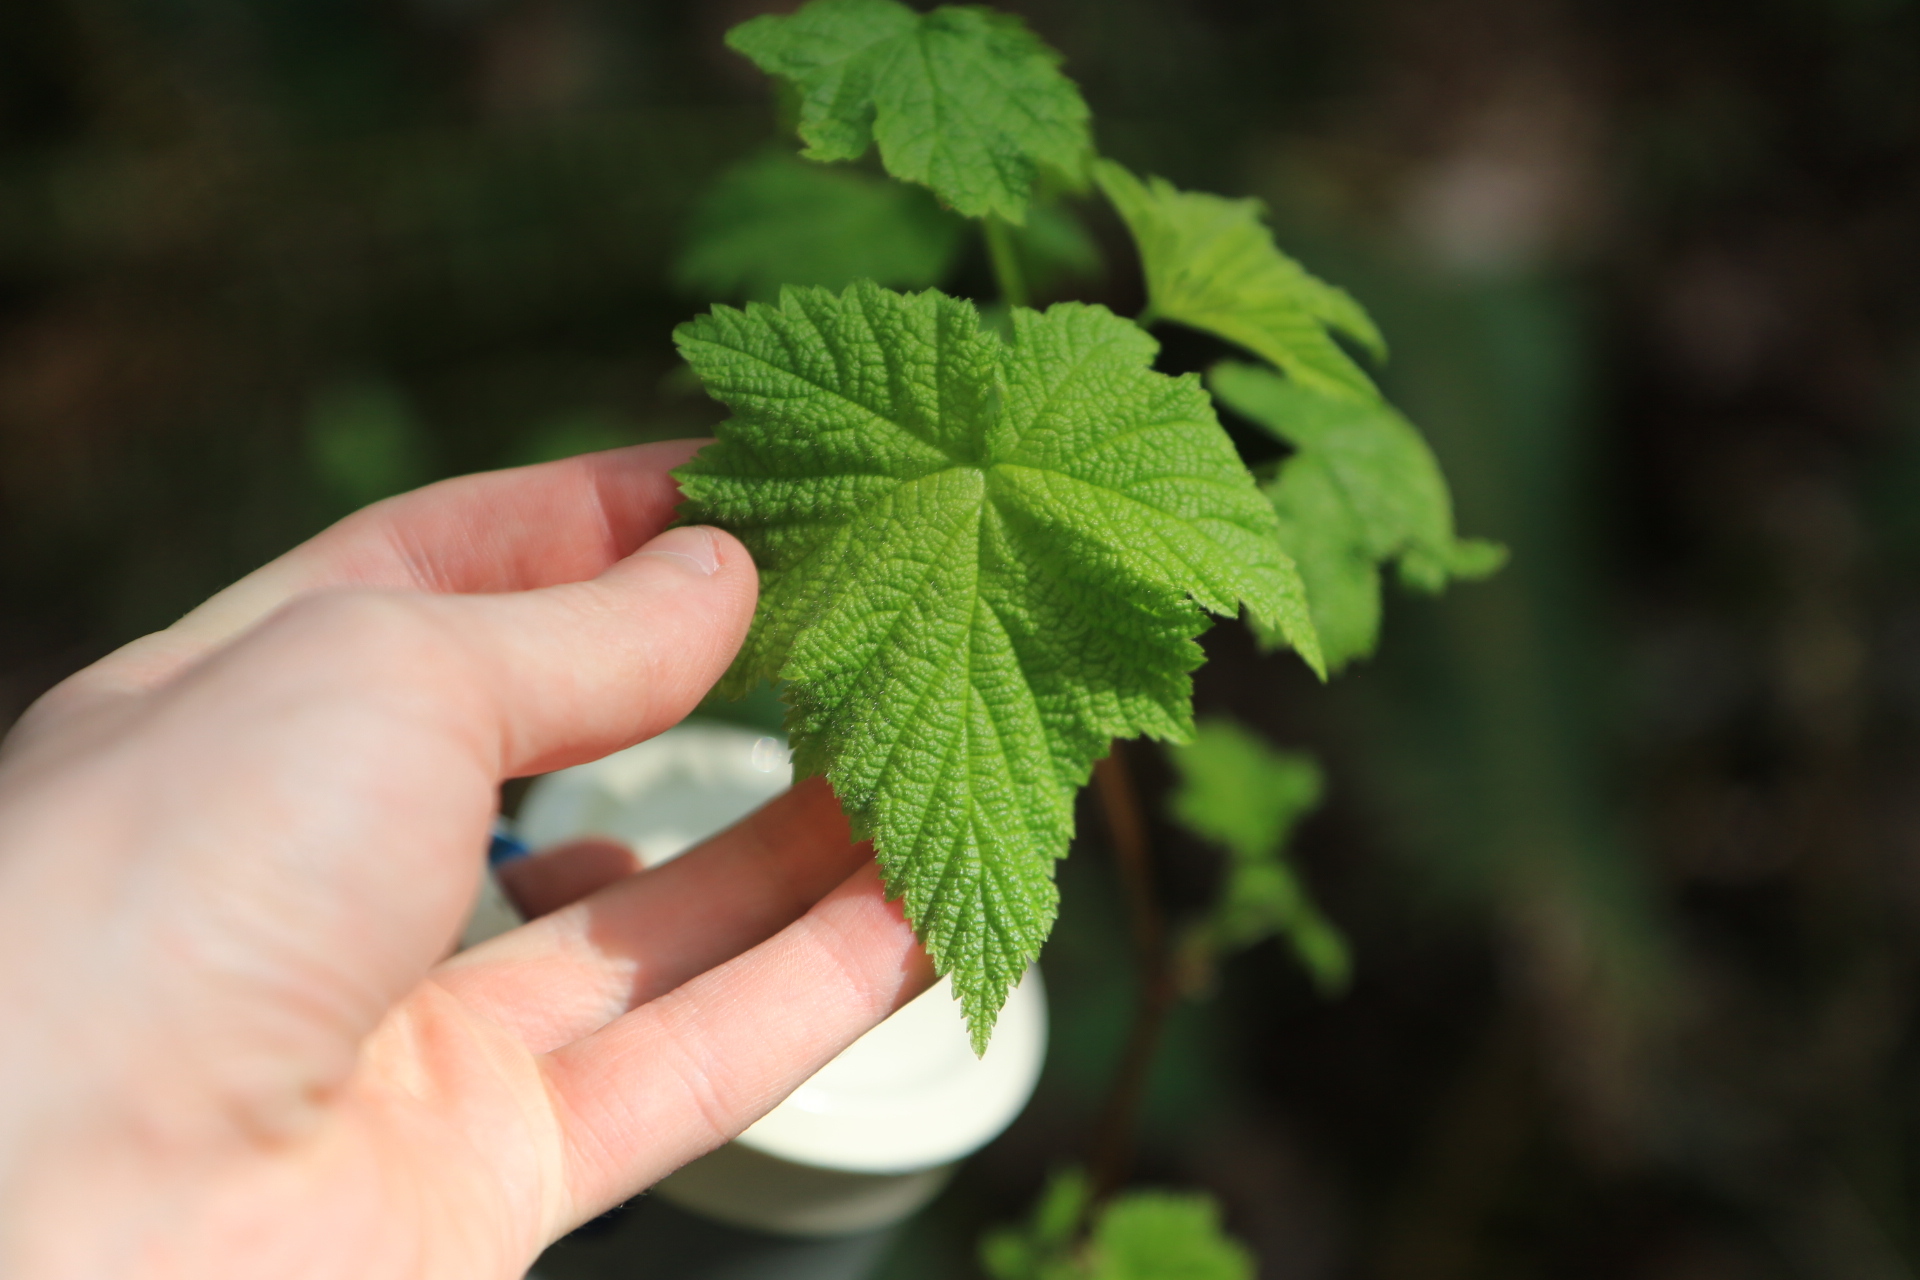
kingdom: Plantae
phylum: Tracheophyta
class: Magnoliopsida
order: Rosales
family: Rosaceae
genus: Rubus
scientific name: Rubus parviflorus
